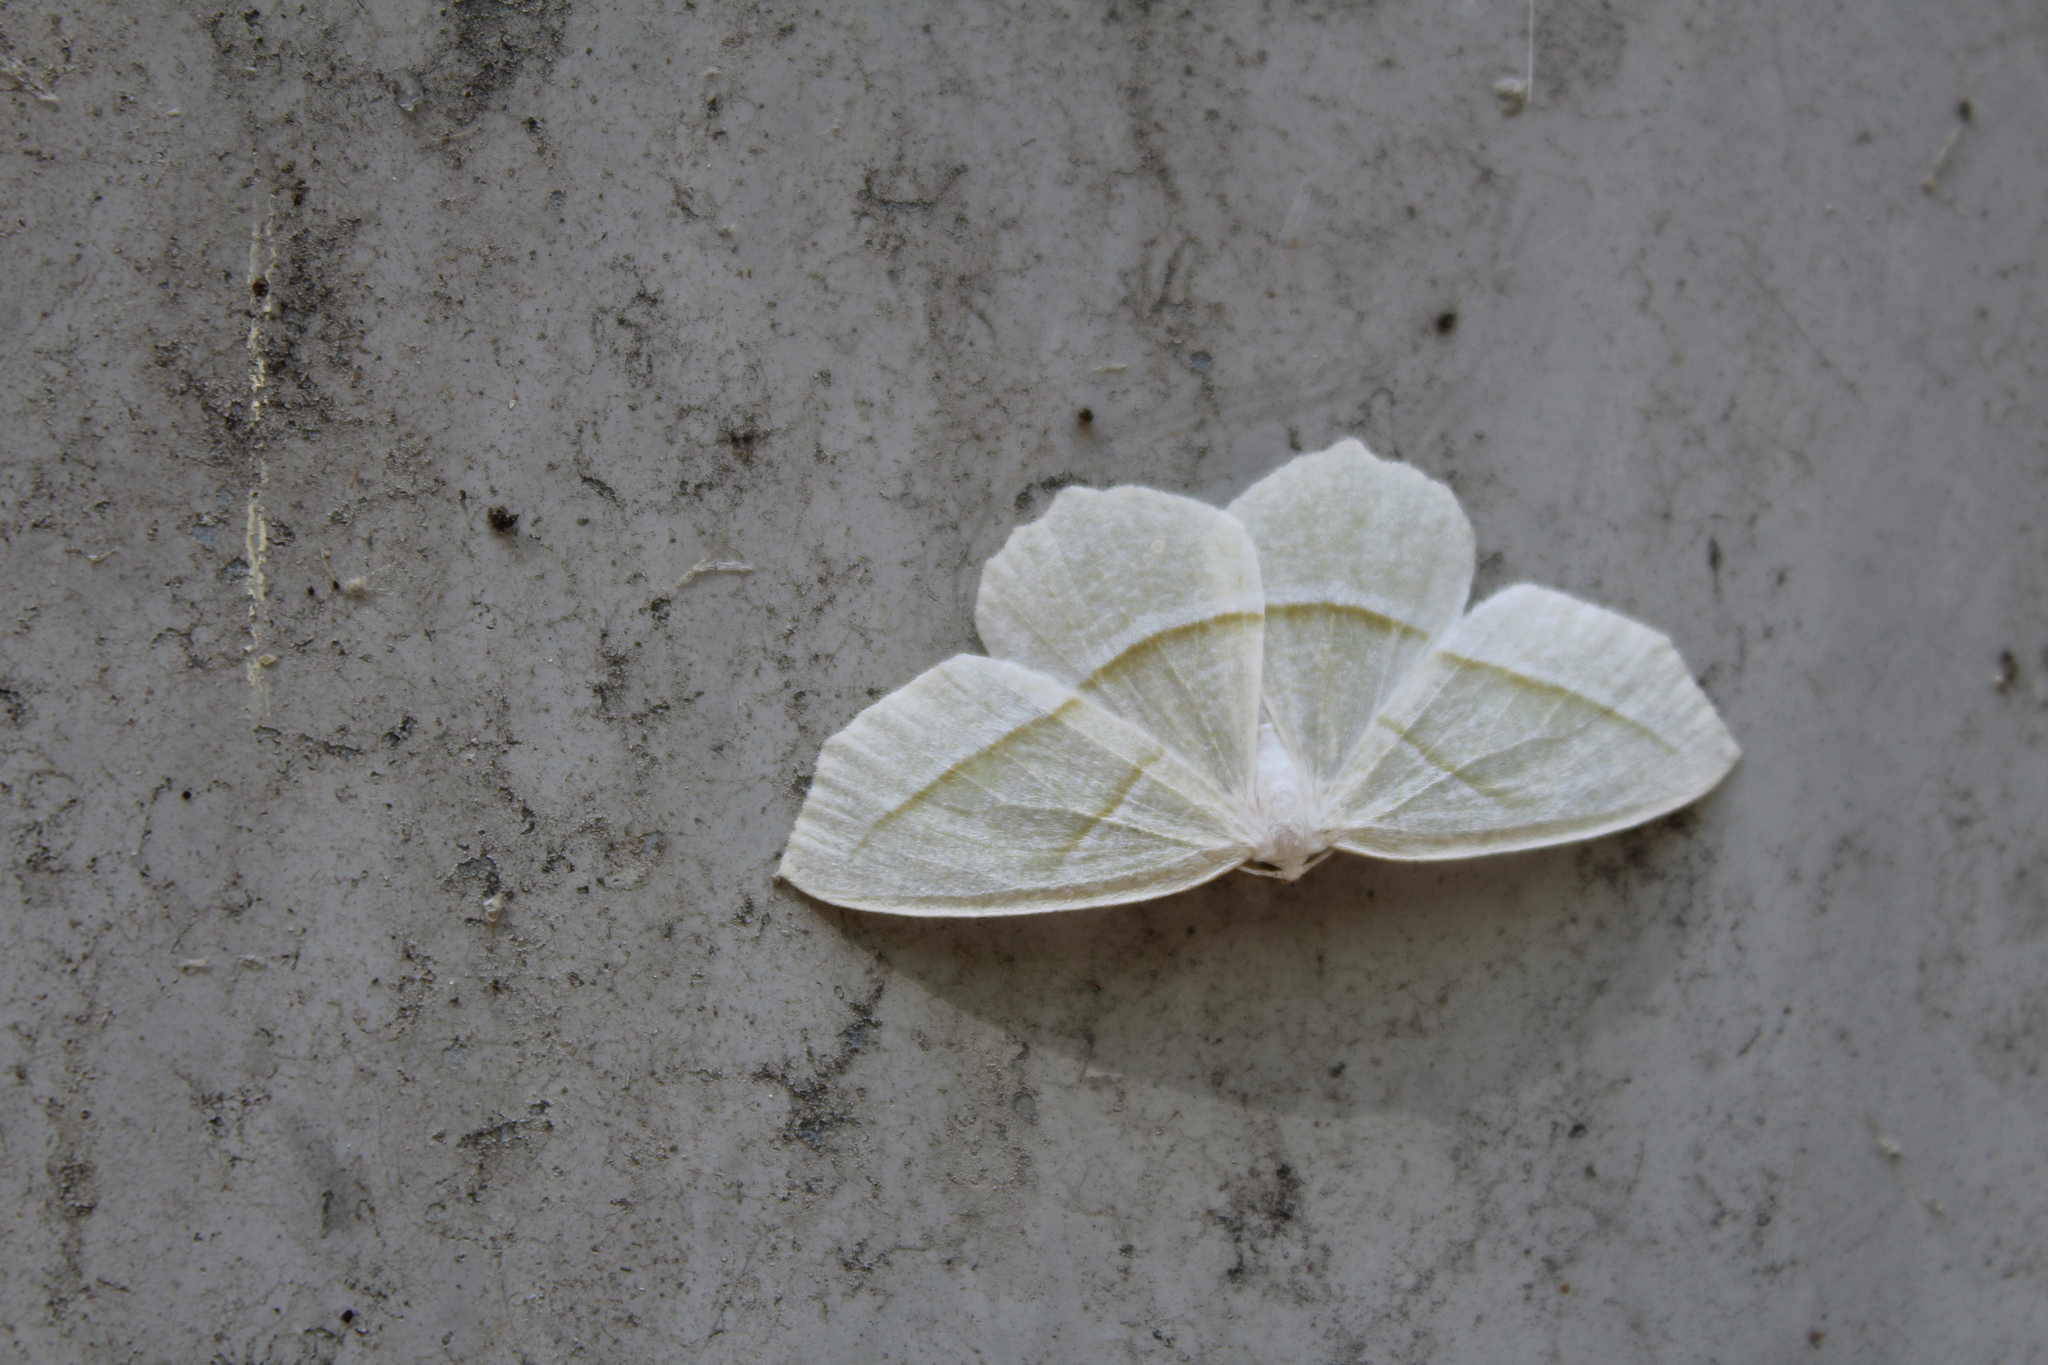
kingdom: Animalia
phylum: Arthropoda
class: Insecta
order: Lepidoptera
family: Geometridae
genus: Campaea
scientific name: Campaea perlata
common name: Fringed looper
